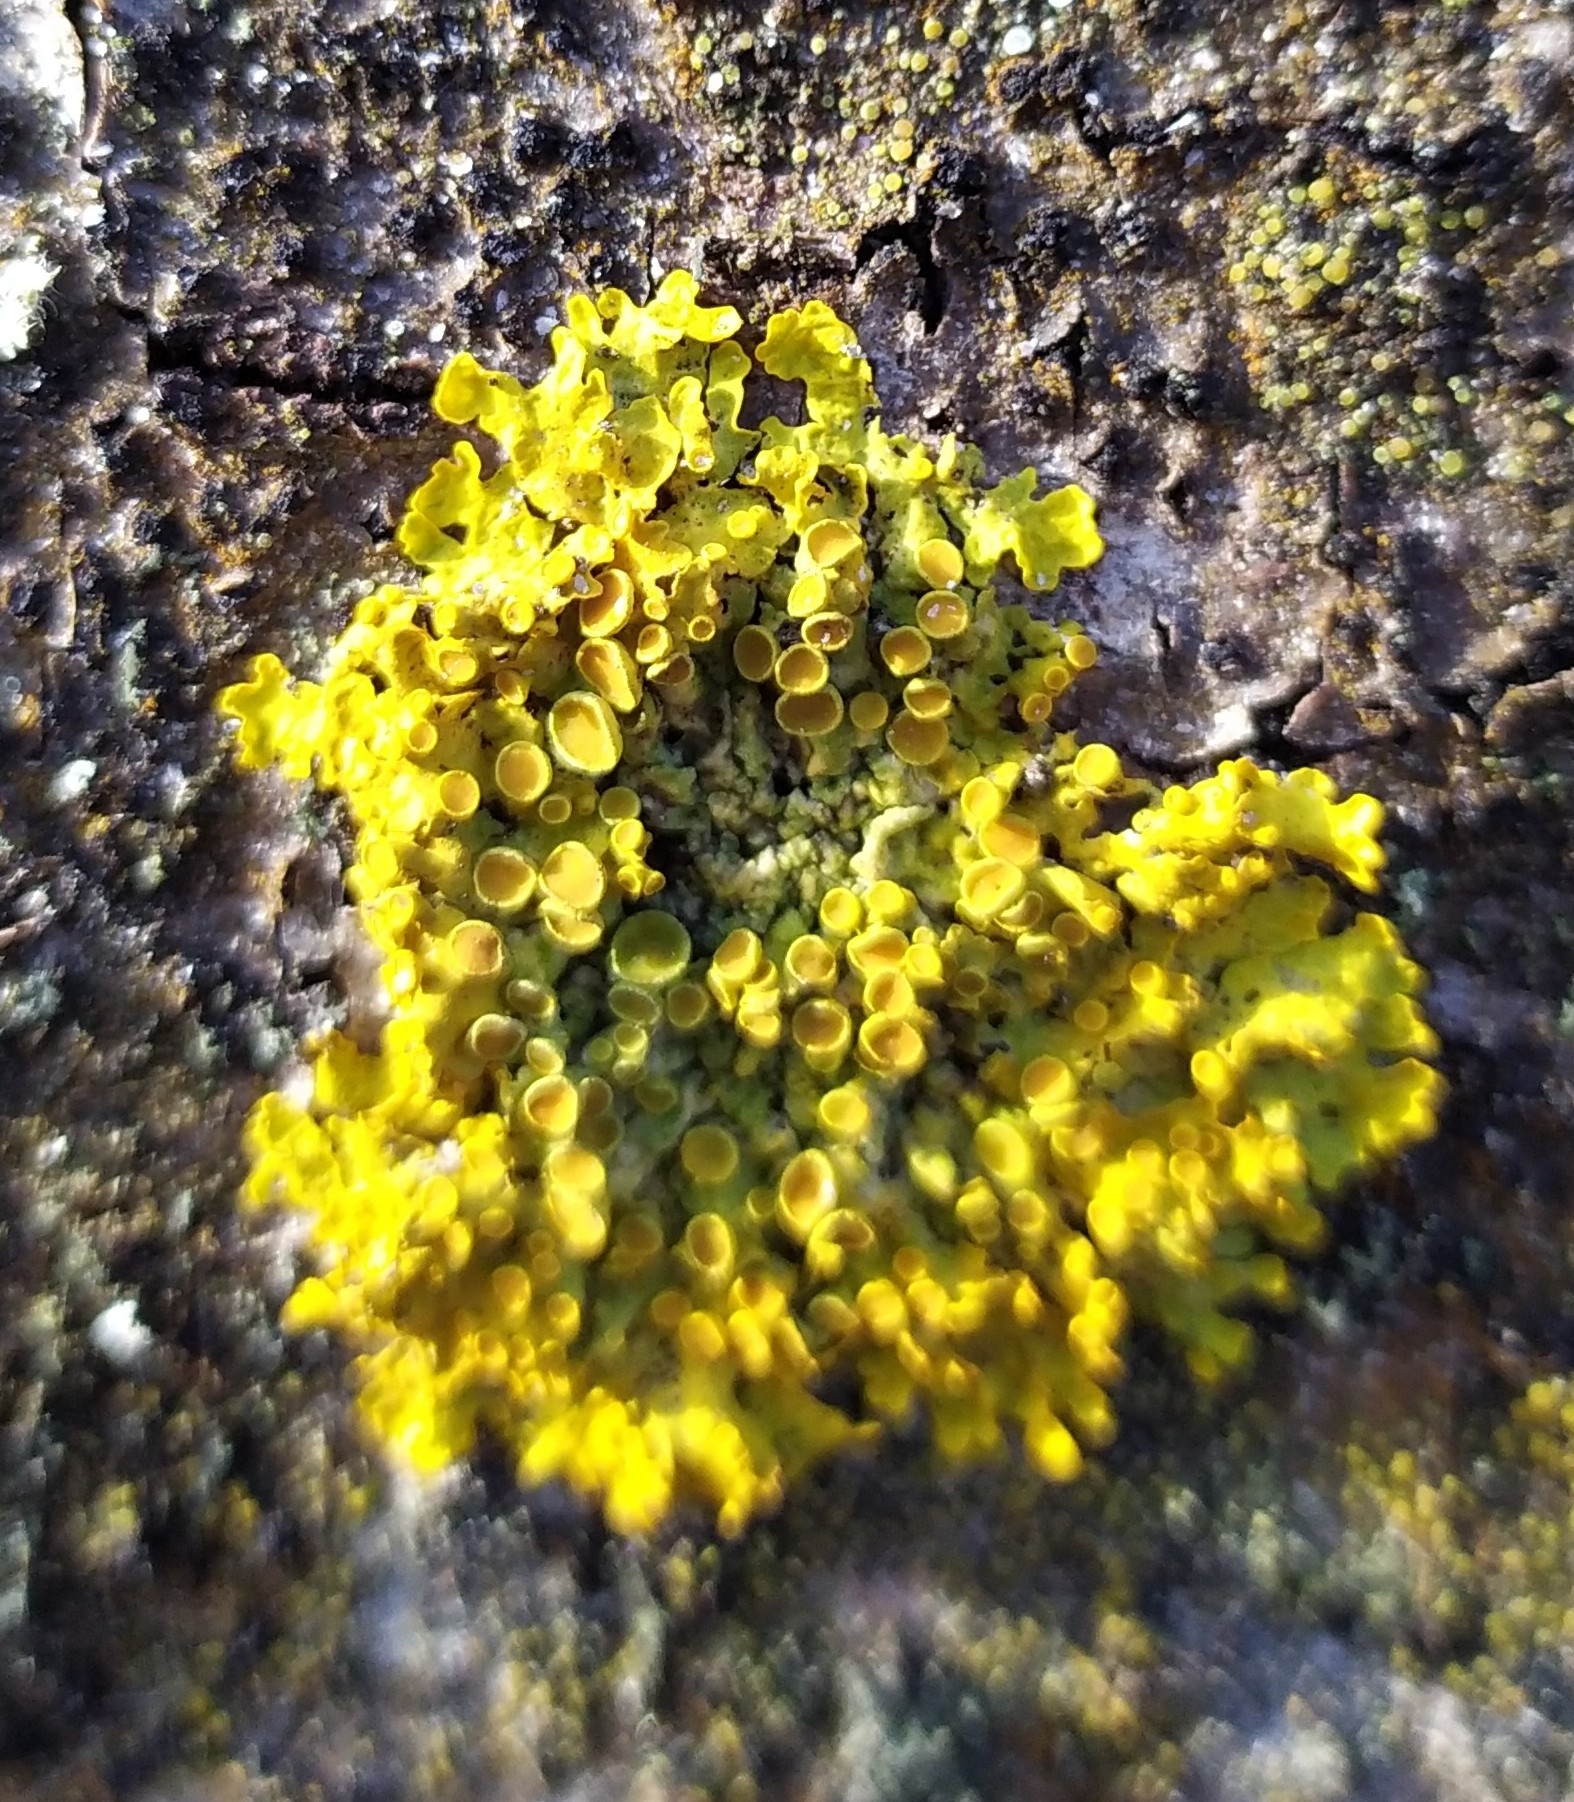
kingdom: Fungi
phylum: Ascomycota
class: Lecanoromycetes
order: Teloschistales
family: Teloschistaceae
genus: Xanthoria
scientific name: Xanthoria parietina
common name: Common orange lichen
